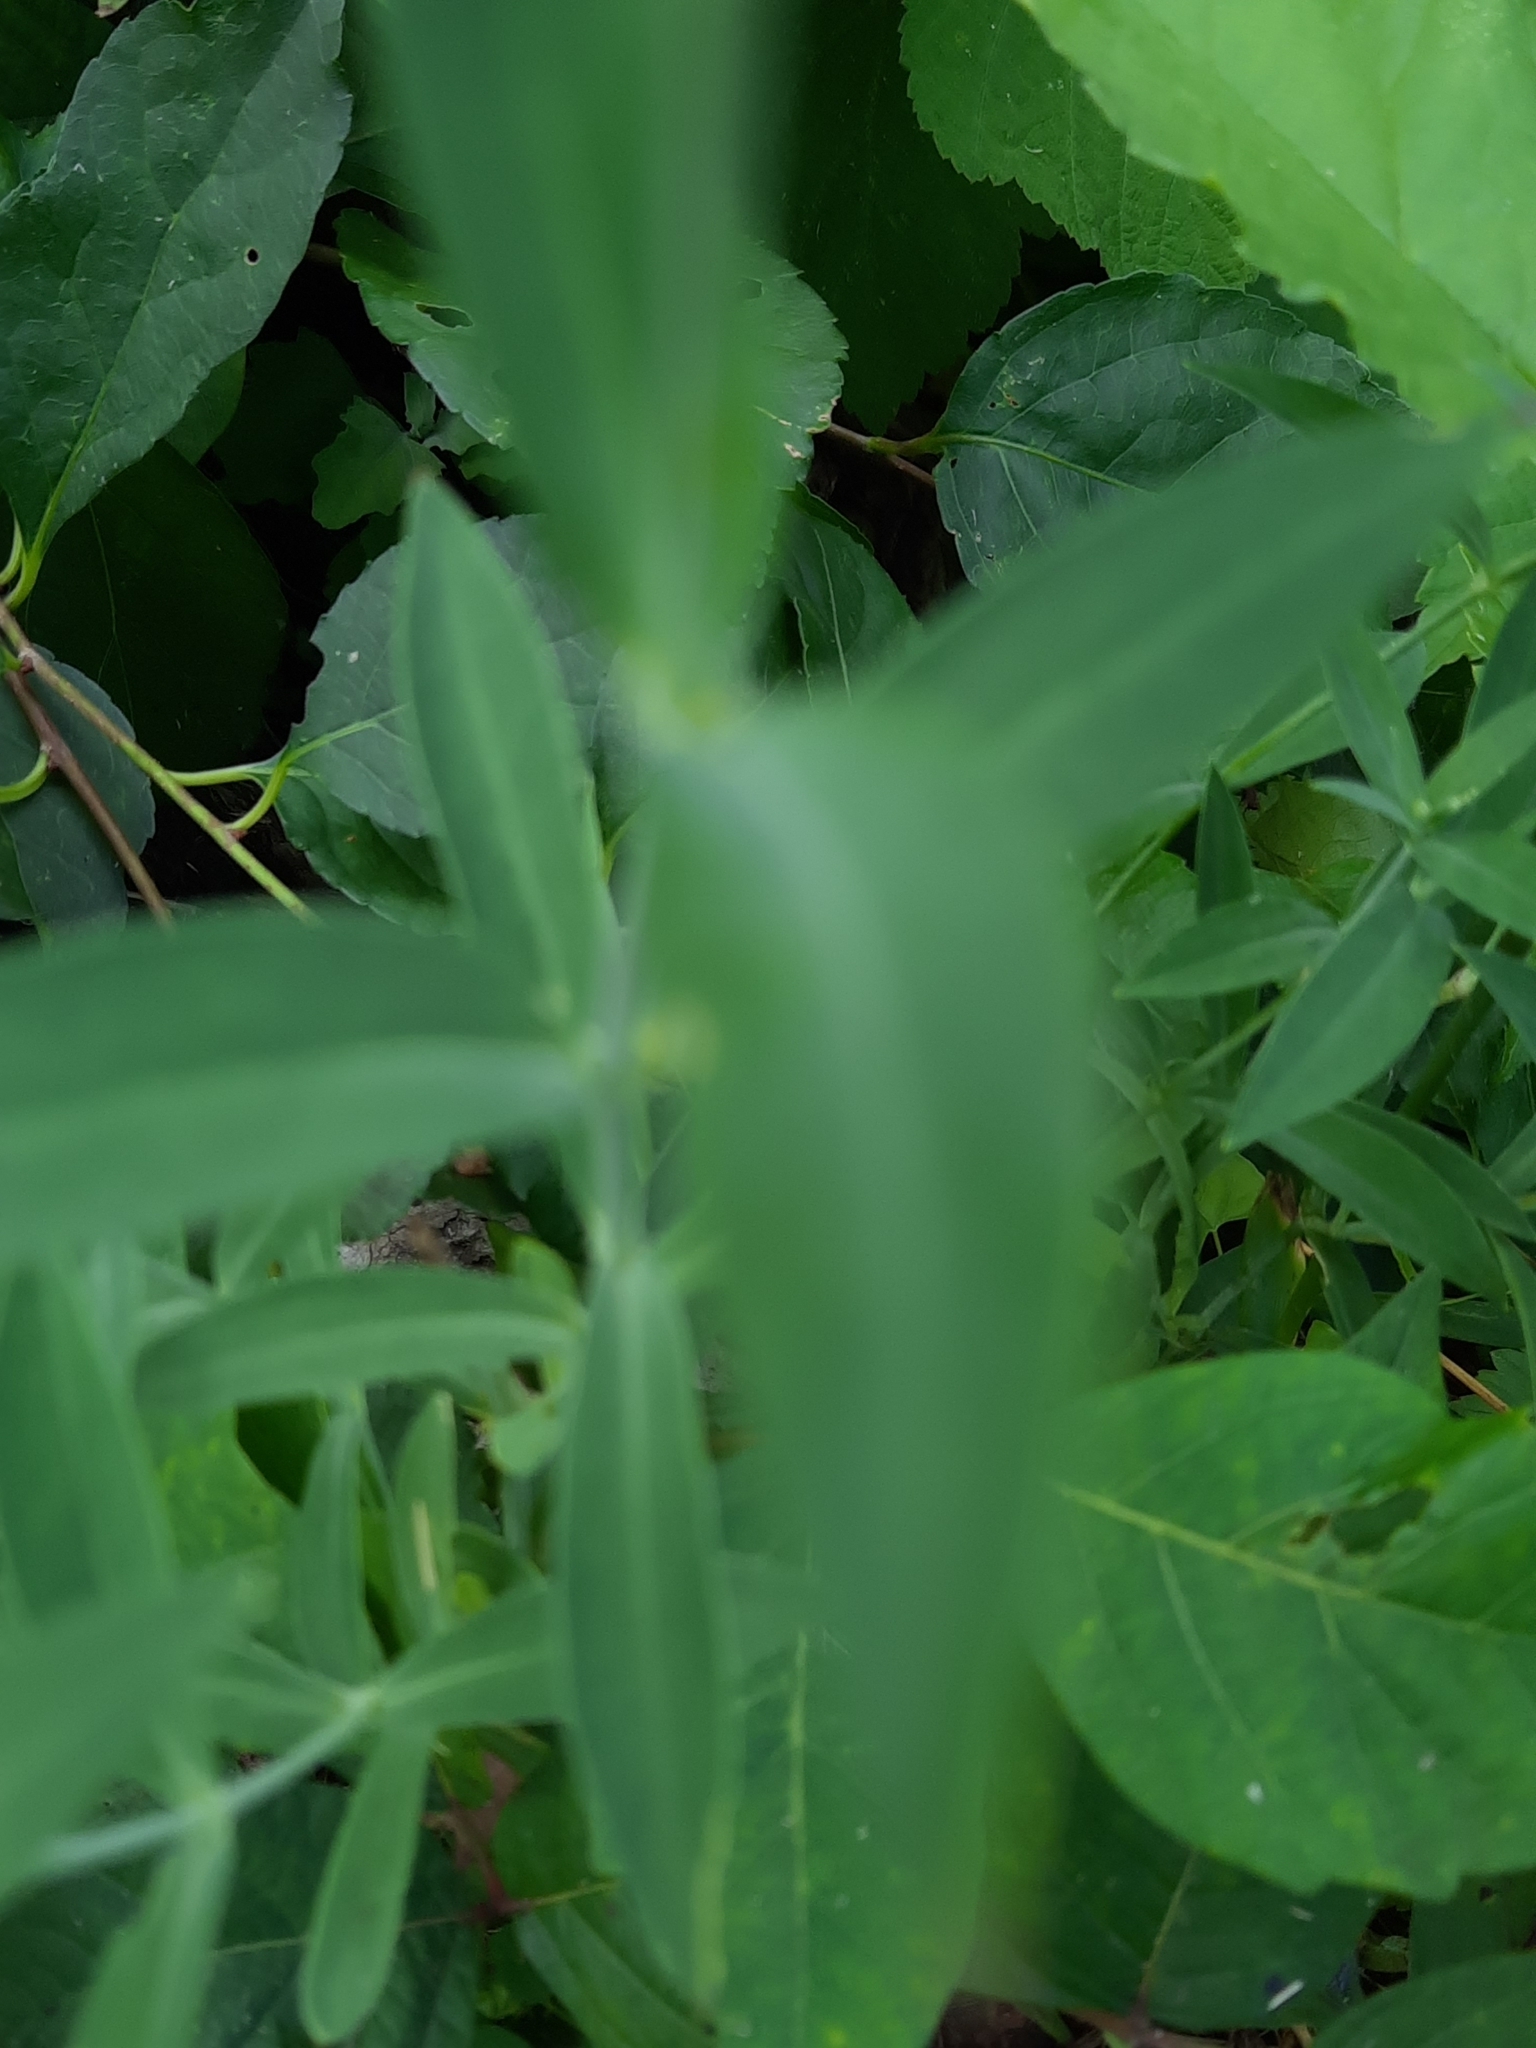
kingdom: Plantae
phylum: Tracheophyta
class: Magnoliopsida
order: Caryophyllales
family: Caryophyllaceae
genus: Silene
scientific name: Silene vulgaris
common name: Bladder campion
